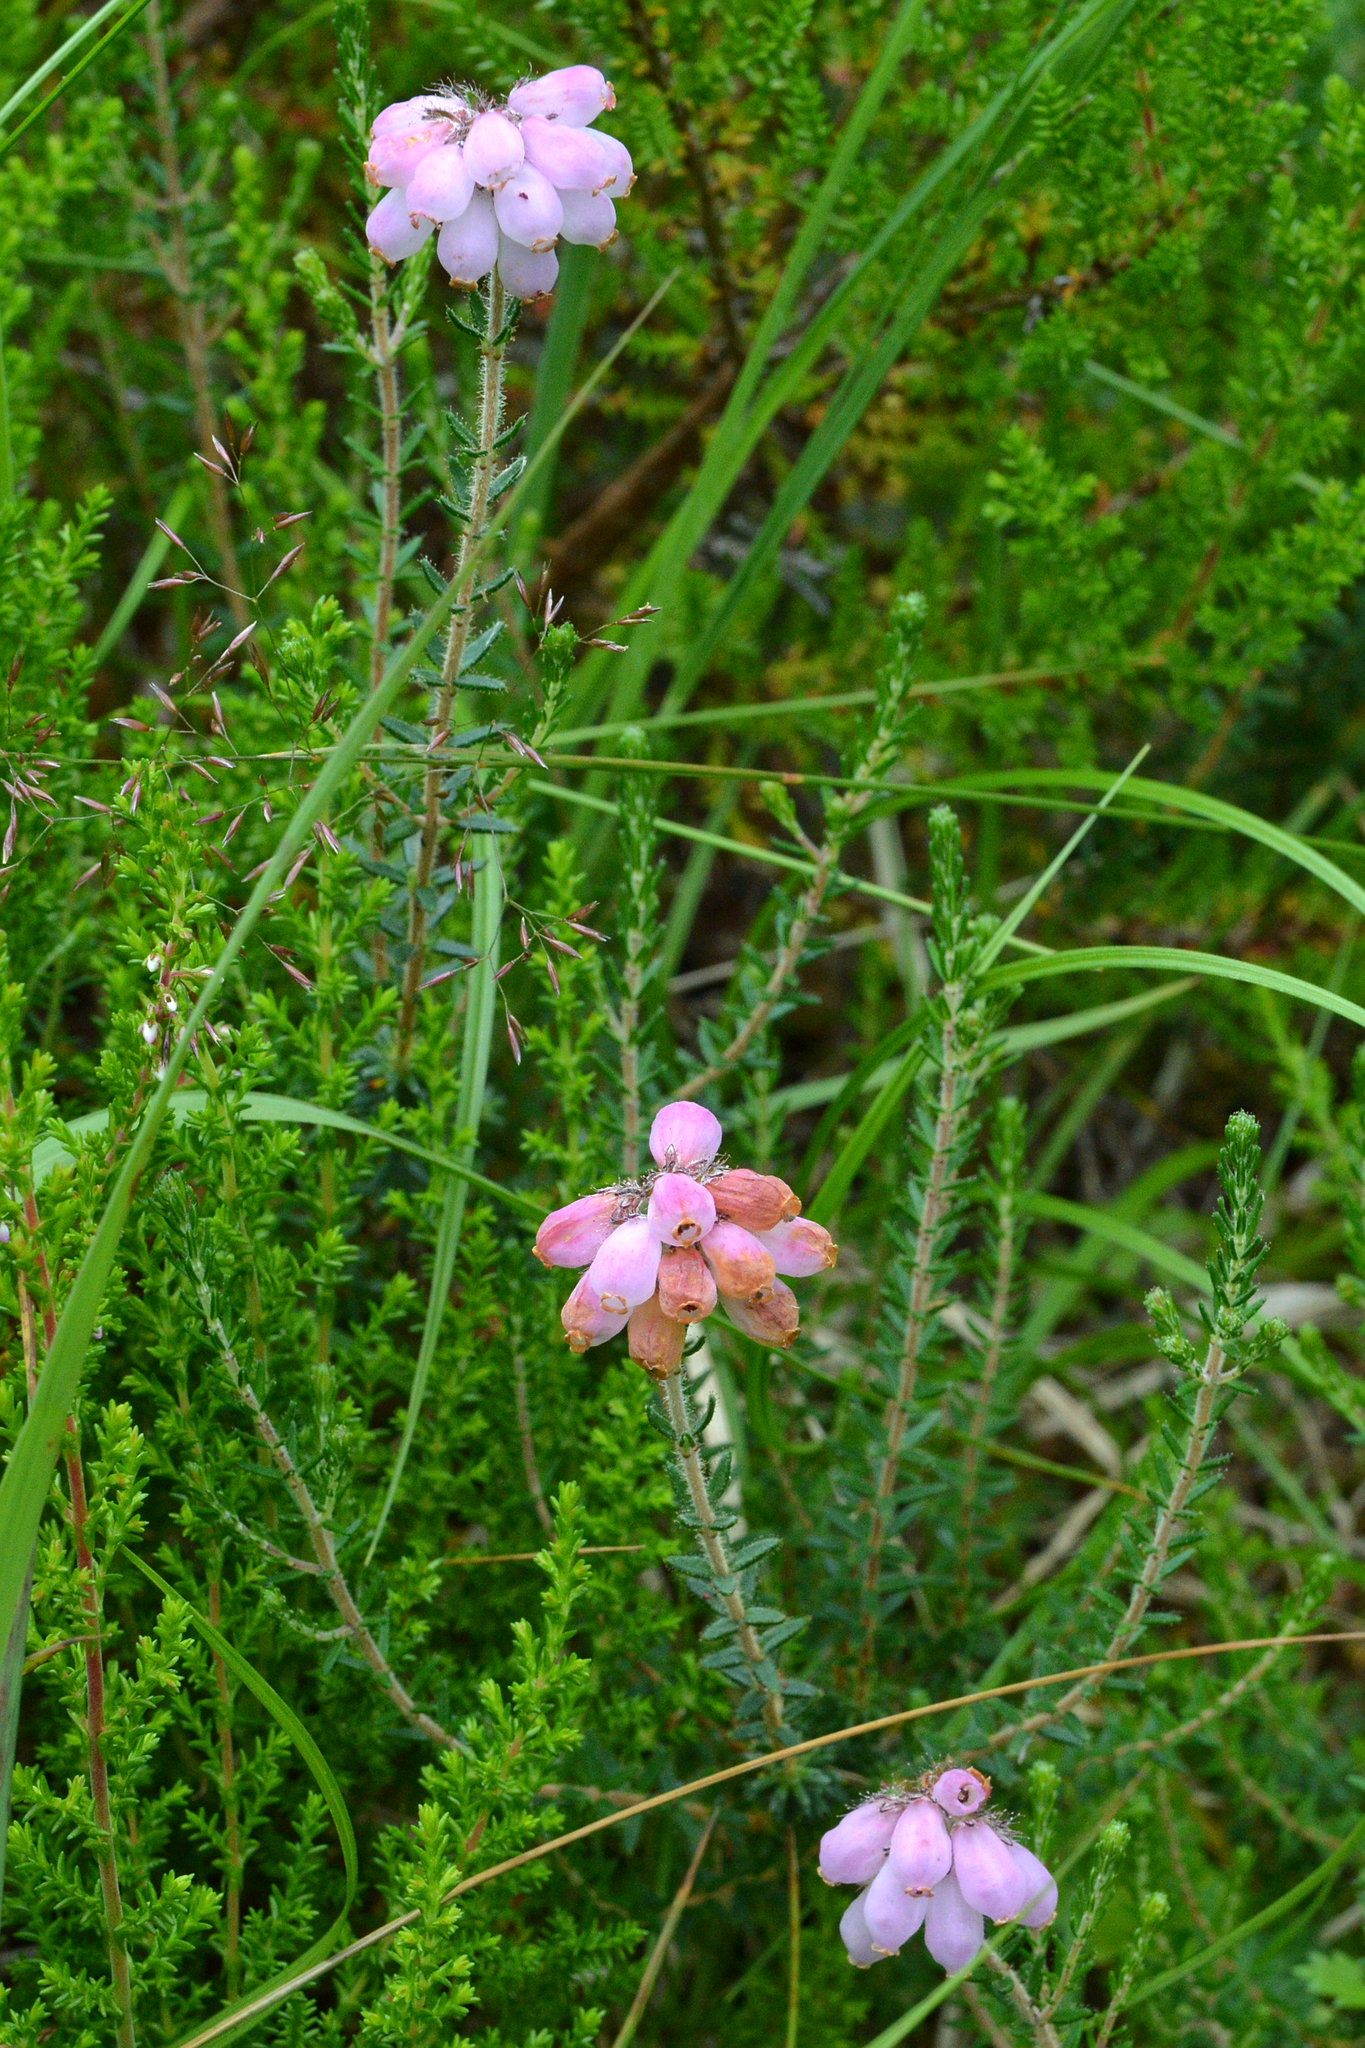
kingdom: Plantae
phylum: Tracheophyta
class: Magnoliopsida
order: Ericales
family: Ericaceae
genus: Erica
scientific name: Erica tetralix
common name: Cross-leaved heath
